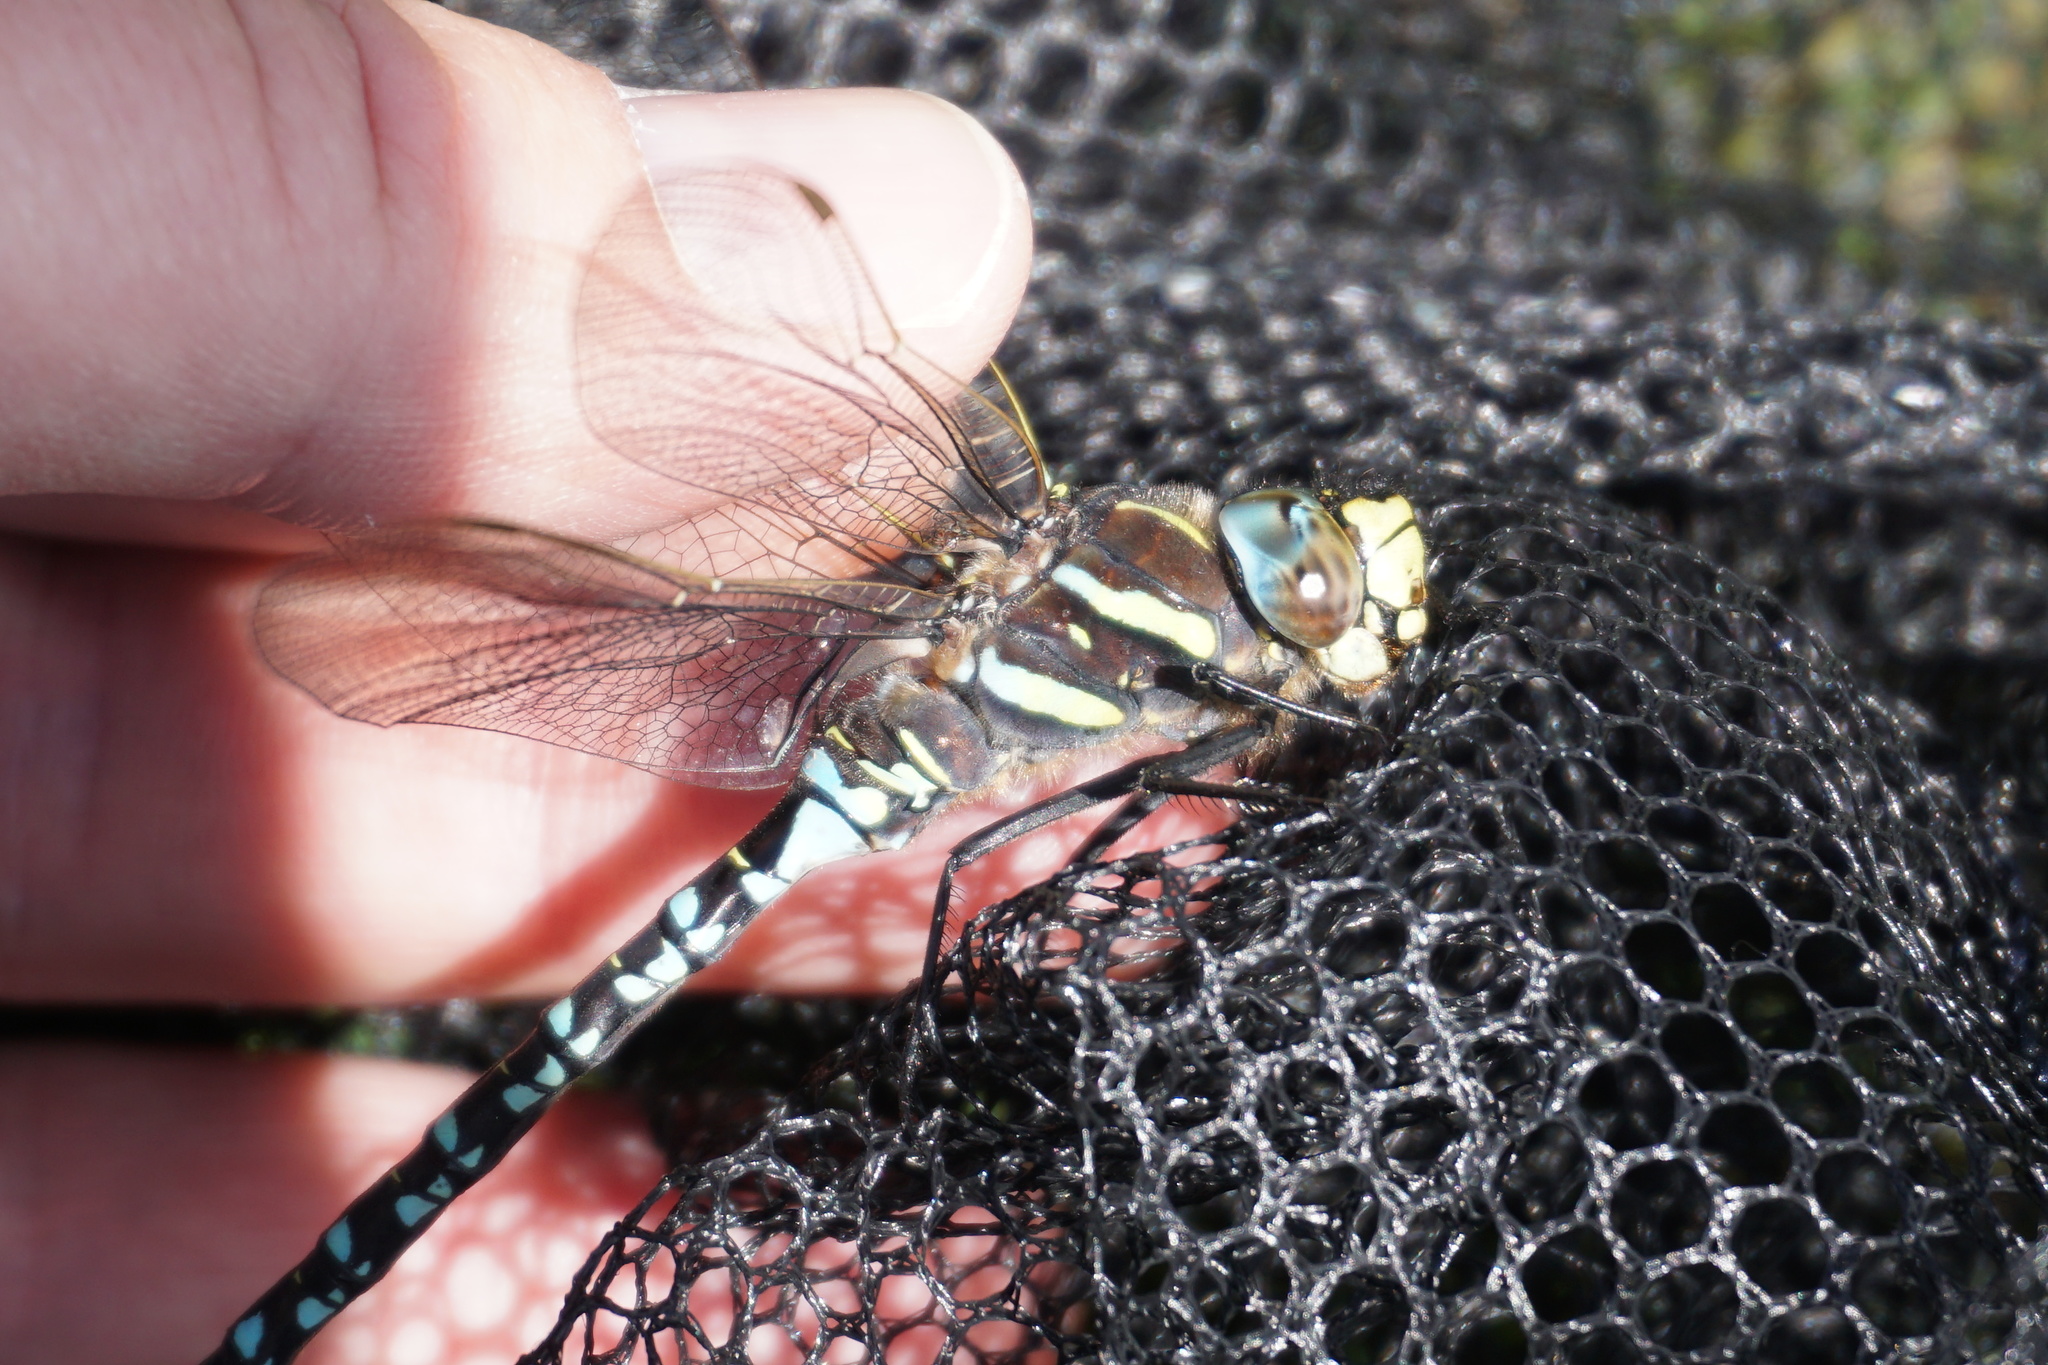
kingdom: Animalia
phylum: Arthropoda
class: Insecta
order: Odonata
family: Aeshnidae
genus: Aeshna
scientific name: Aeshna juncea
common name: Moorland hawker
